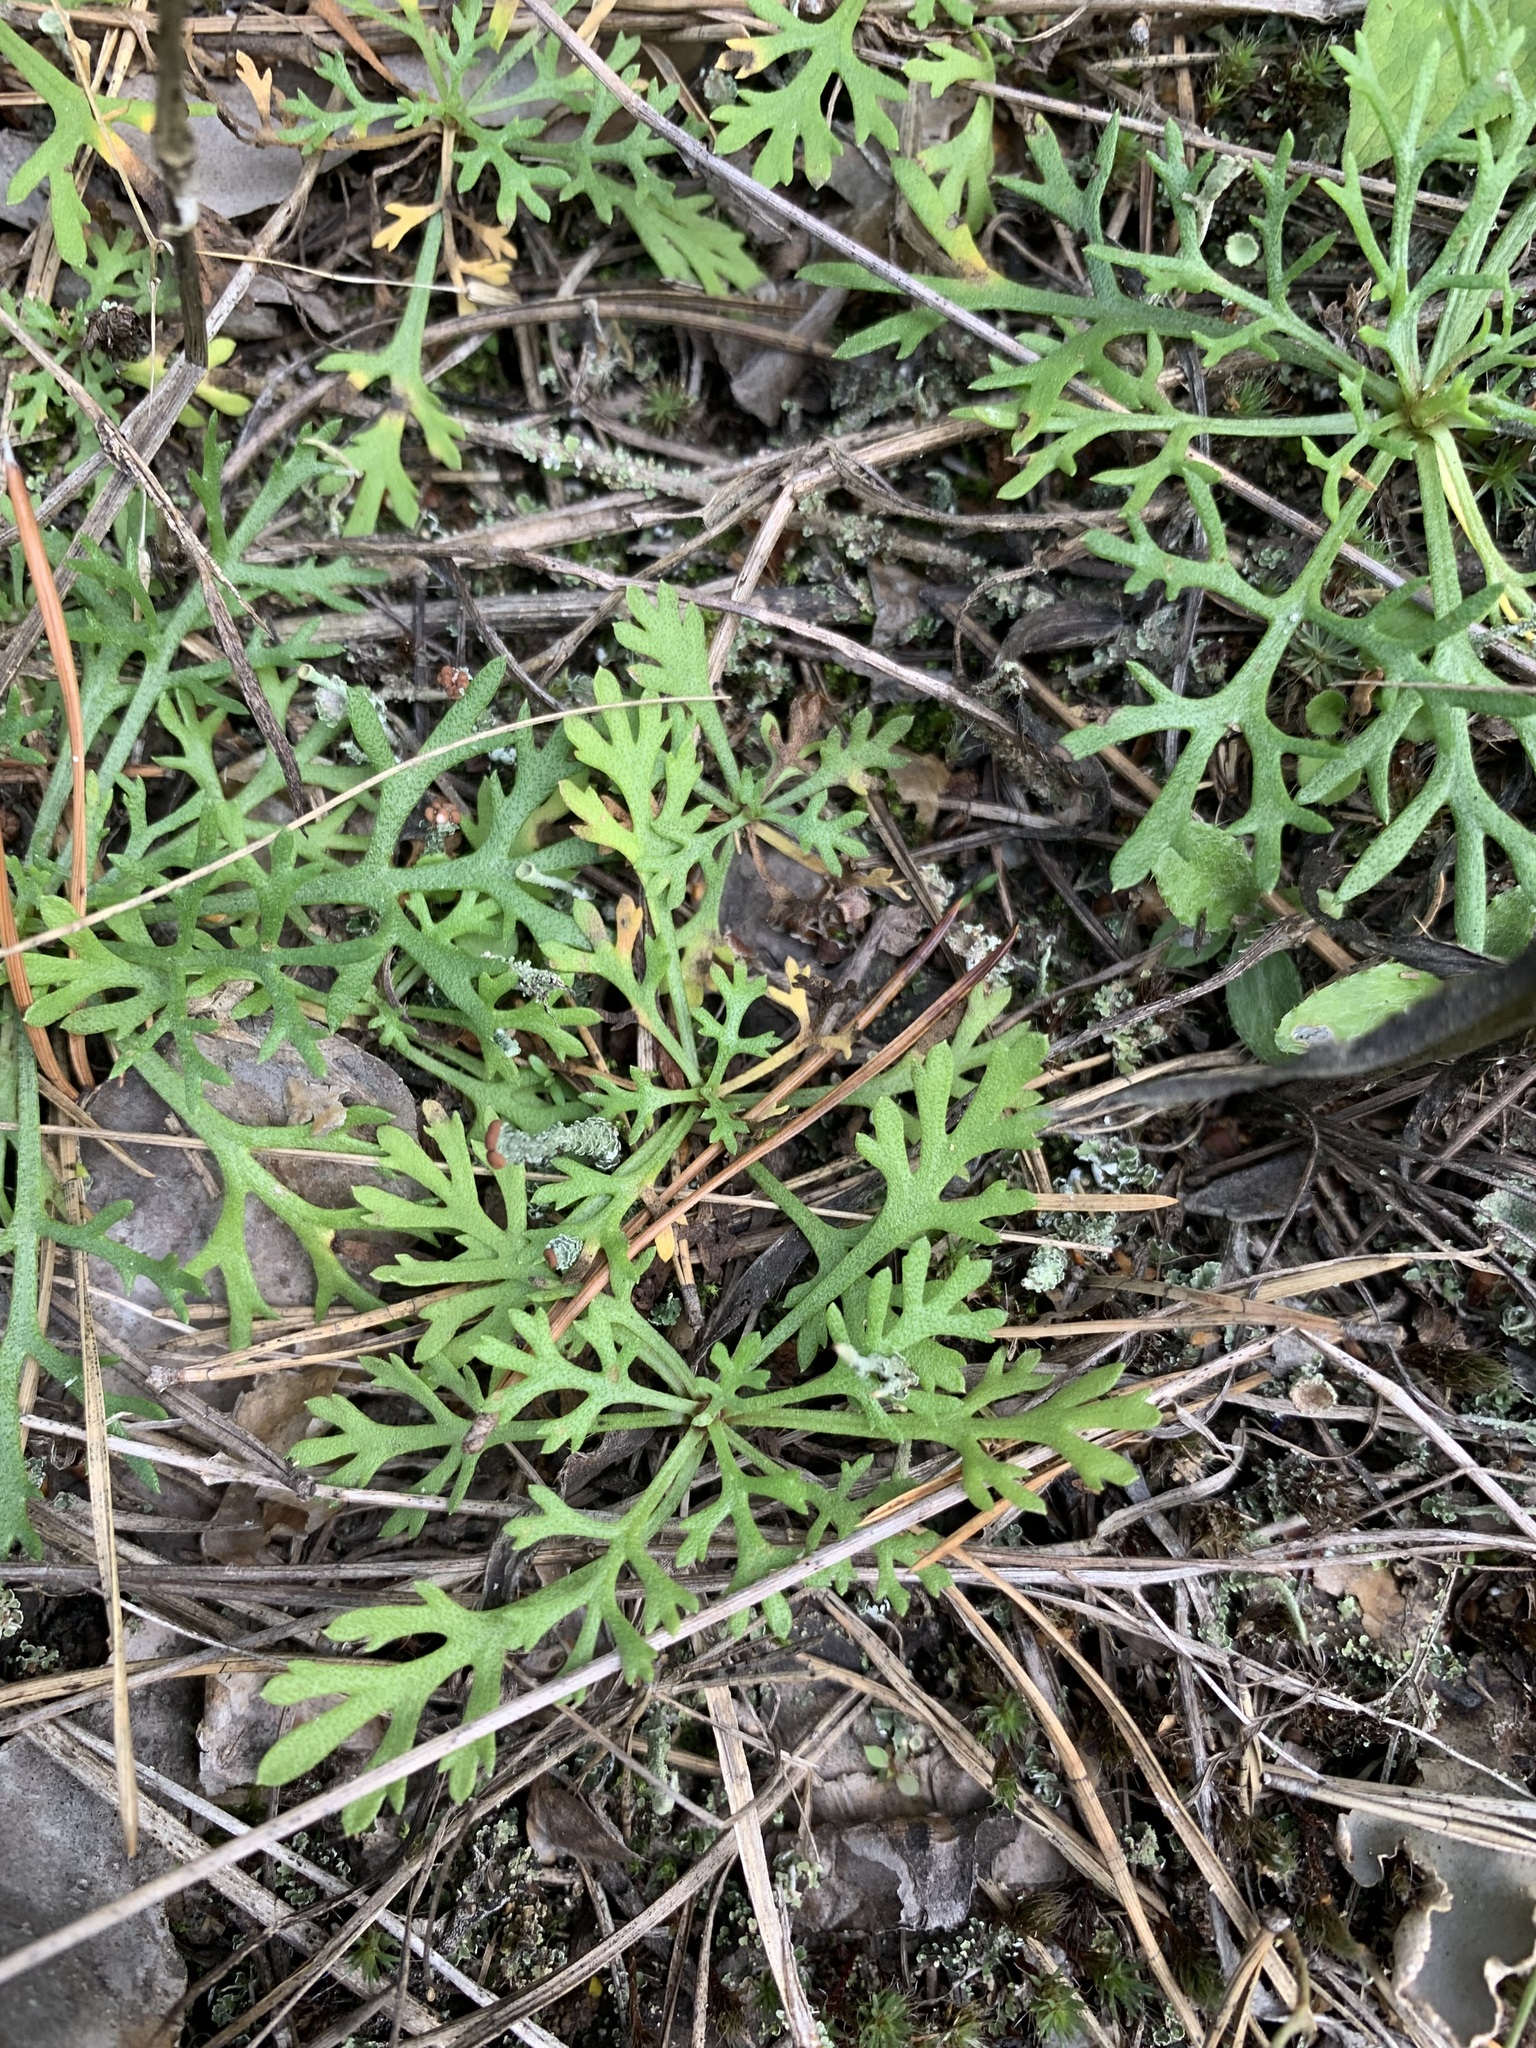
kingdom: Plantae
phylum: Tracheophyta
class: Magnoliopsida
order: Asterales
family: Asteraceae
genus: Chrysanthemum
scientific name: Chrysanthemum zawadzkii
